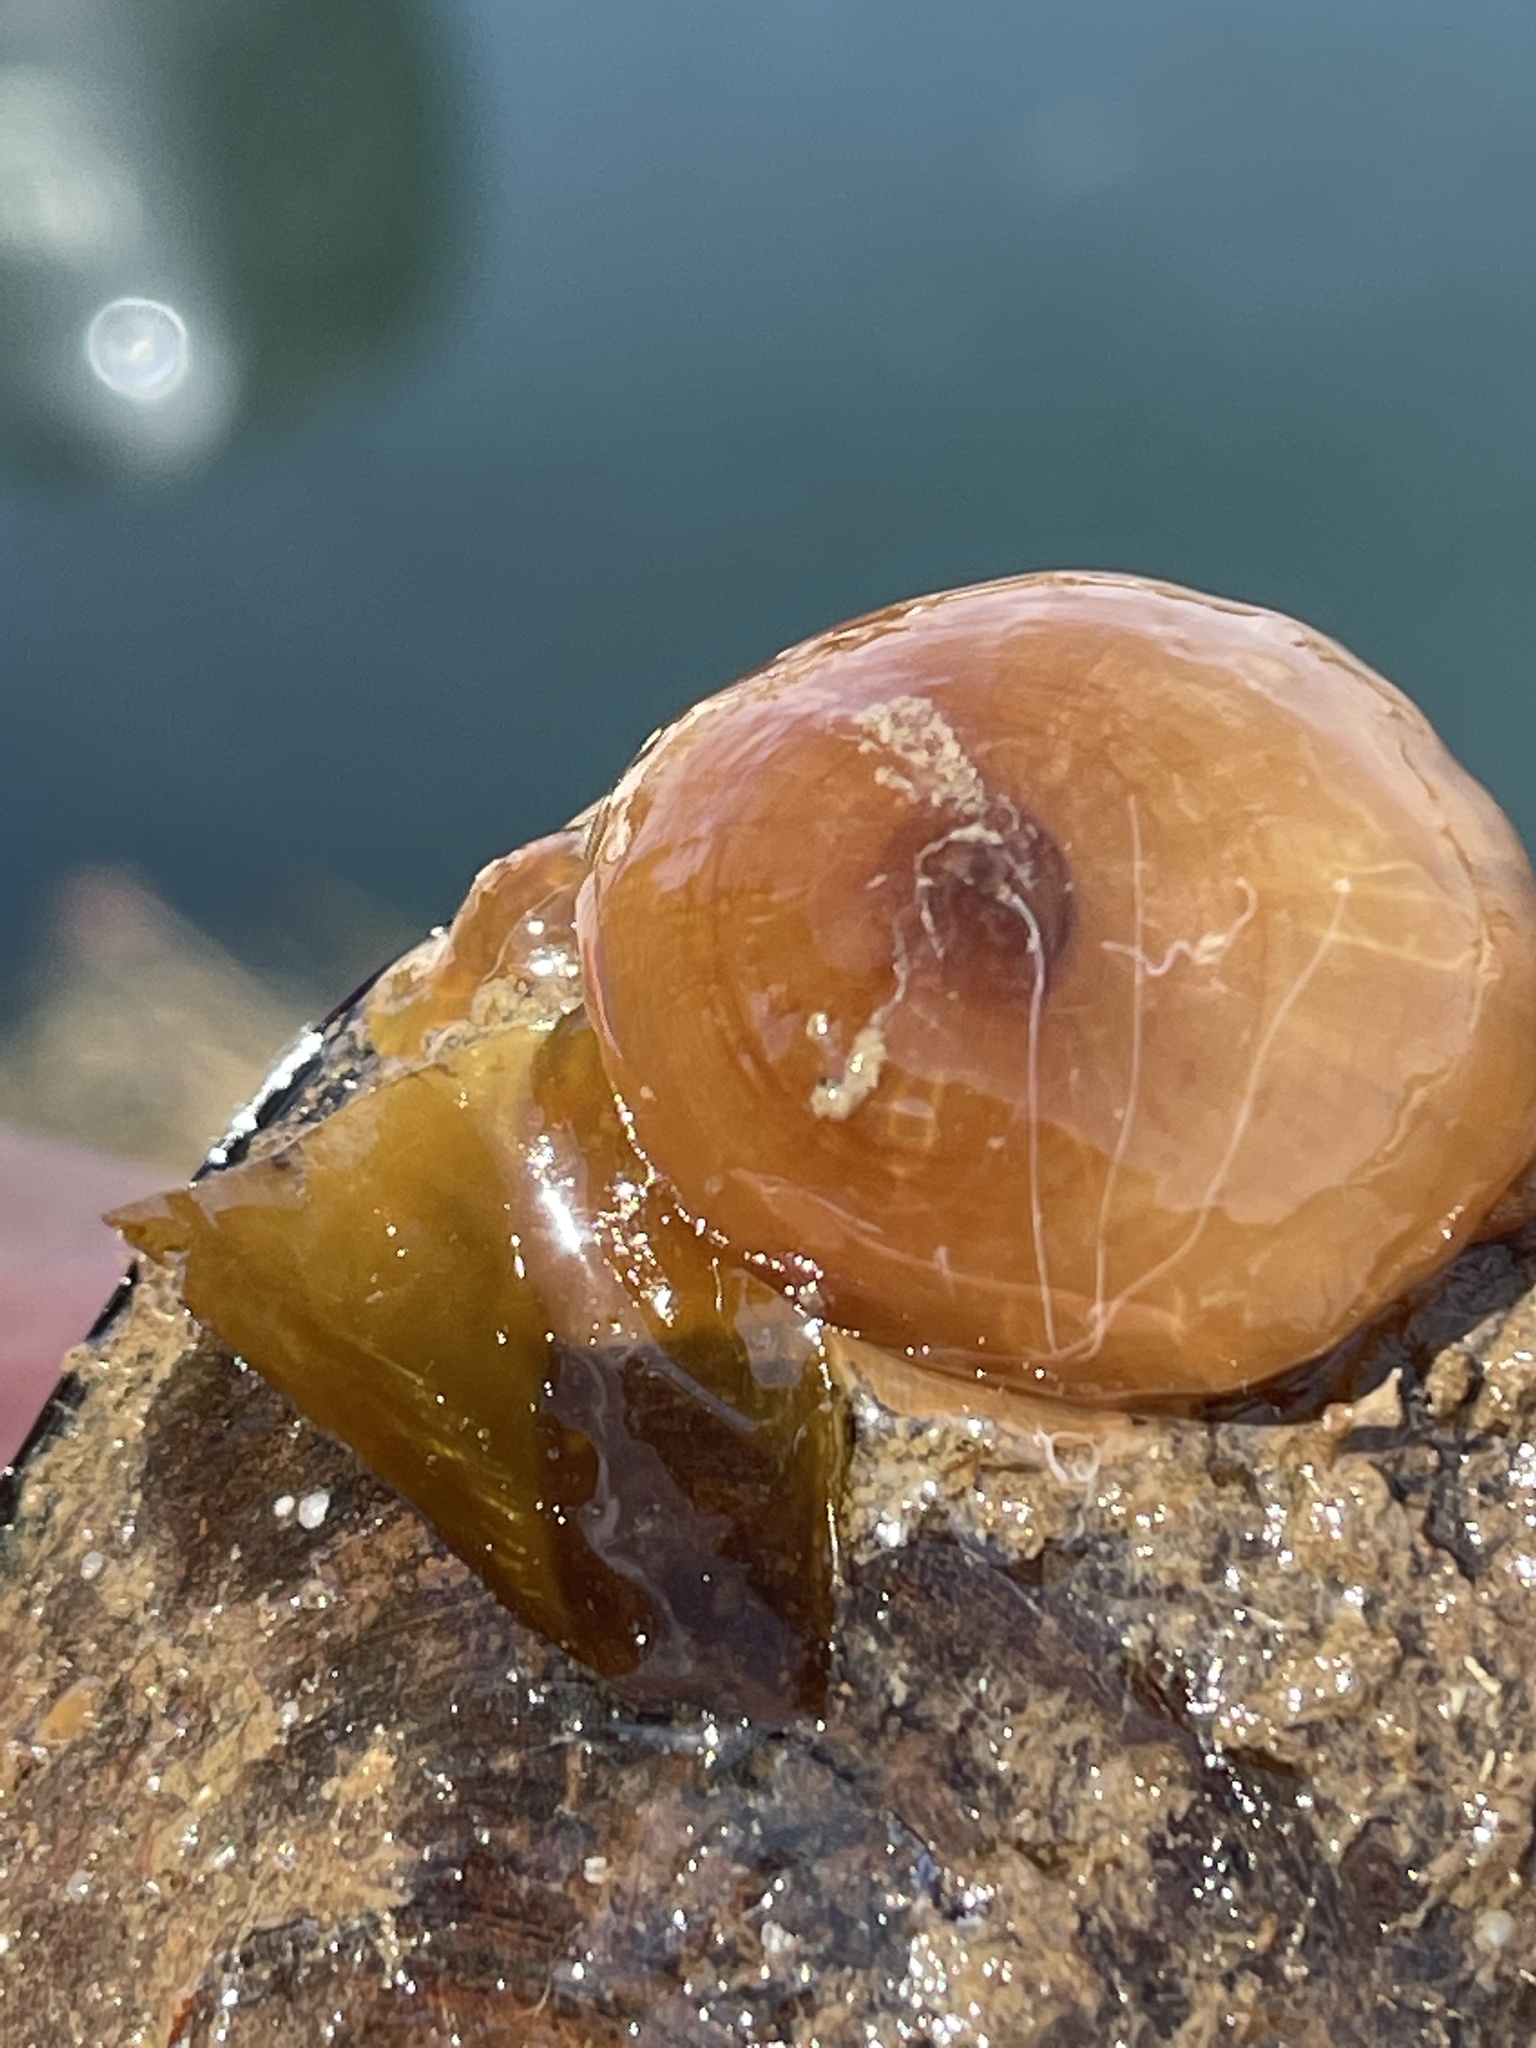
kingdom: Animalia
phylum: Cnidaria
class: Anthozoa
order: Actiniaria
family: Metridiidae
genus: Metridium
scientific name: Metridium senile
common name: Clonal plumose anemone
